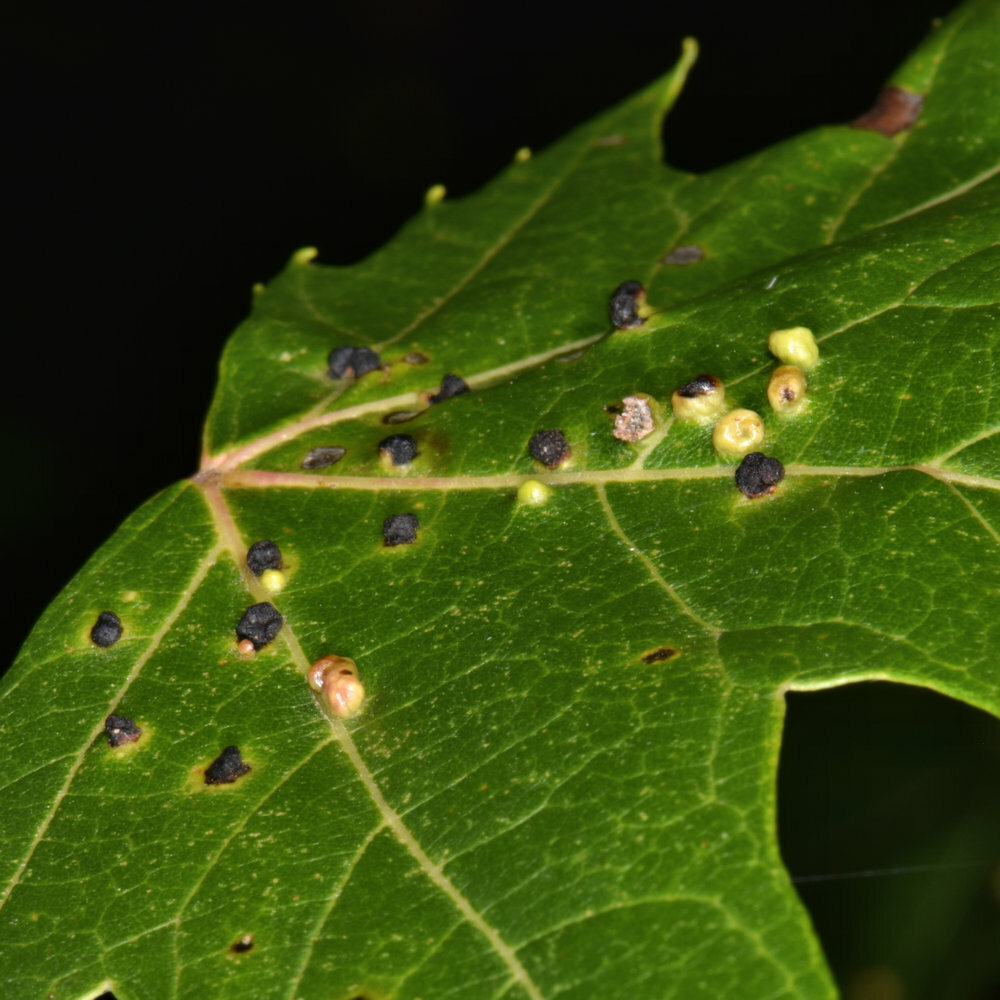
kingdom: Animalia
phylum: Arthropoda
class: Arachnida
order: Trombidiformes
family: Eriophyidae
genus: Vasates
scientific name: Vasates quadripedes
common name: Maple bladder gall mite
